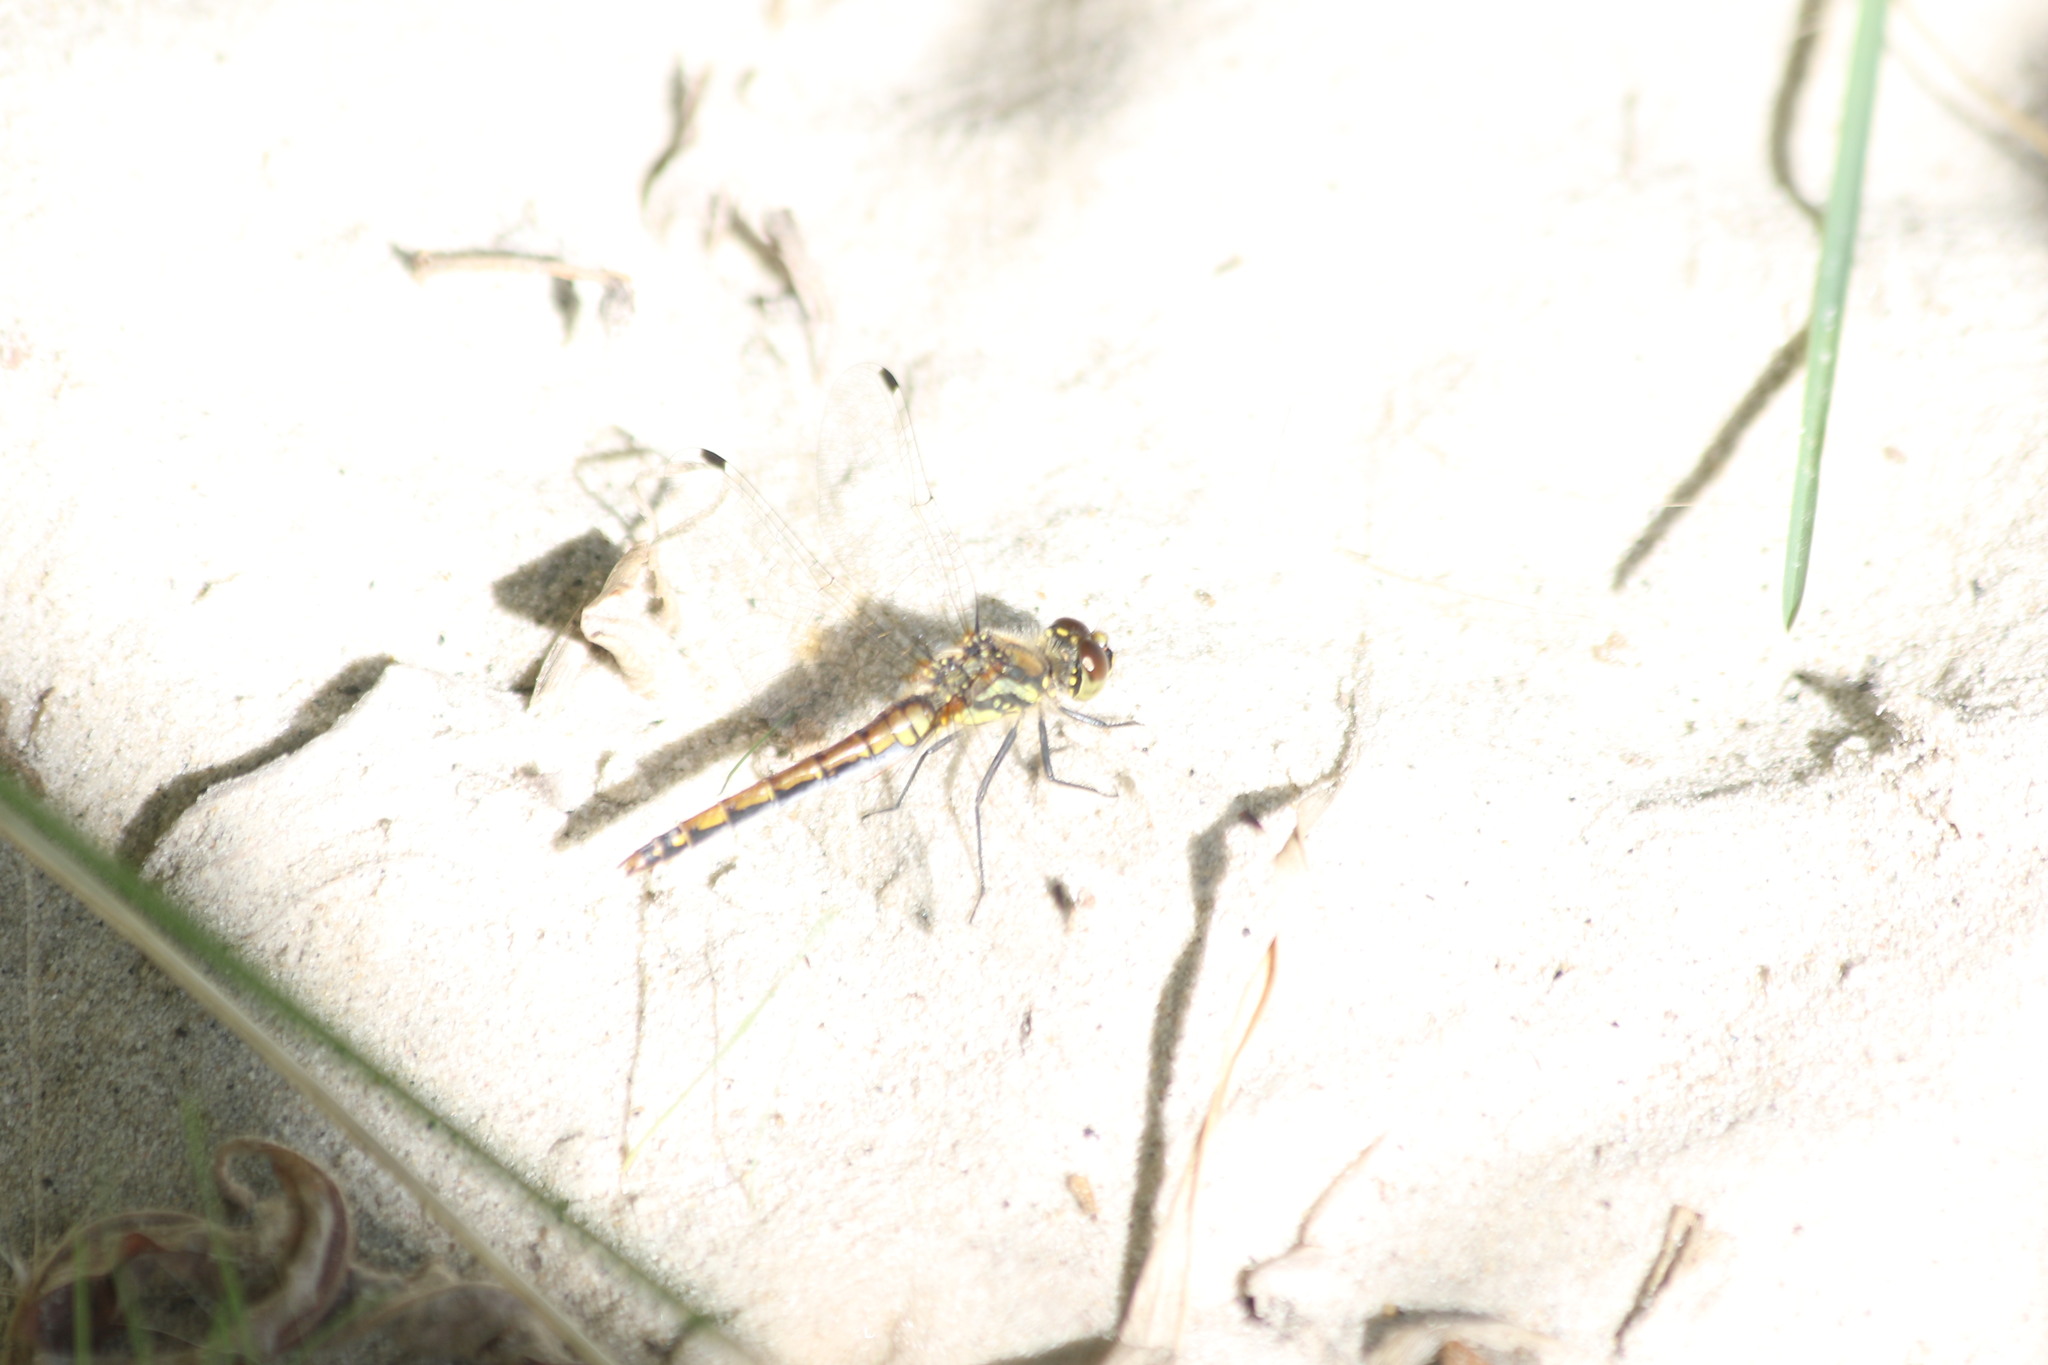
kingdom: Animalia
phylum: Arthropoda
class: Insecta
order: Odonata
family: Libellulidae
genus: Sympetrum
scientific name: Sympetrum danae
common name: Black darter
